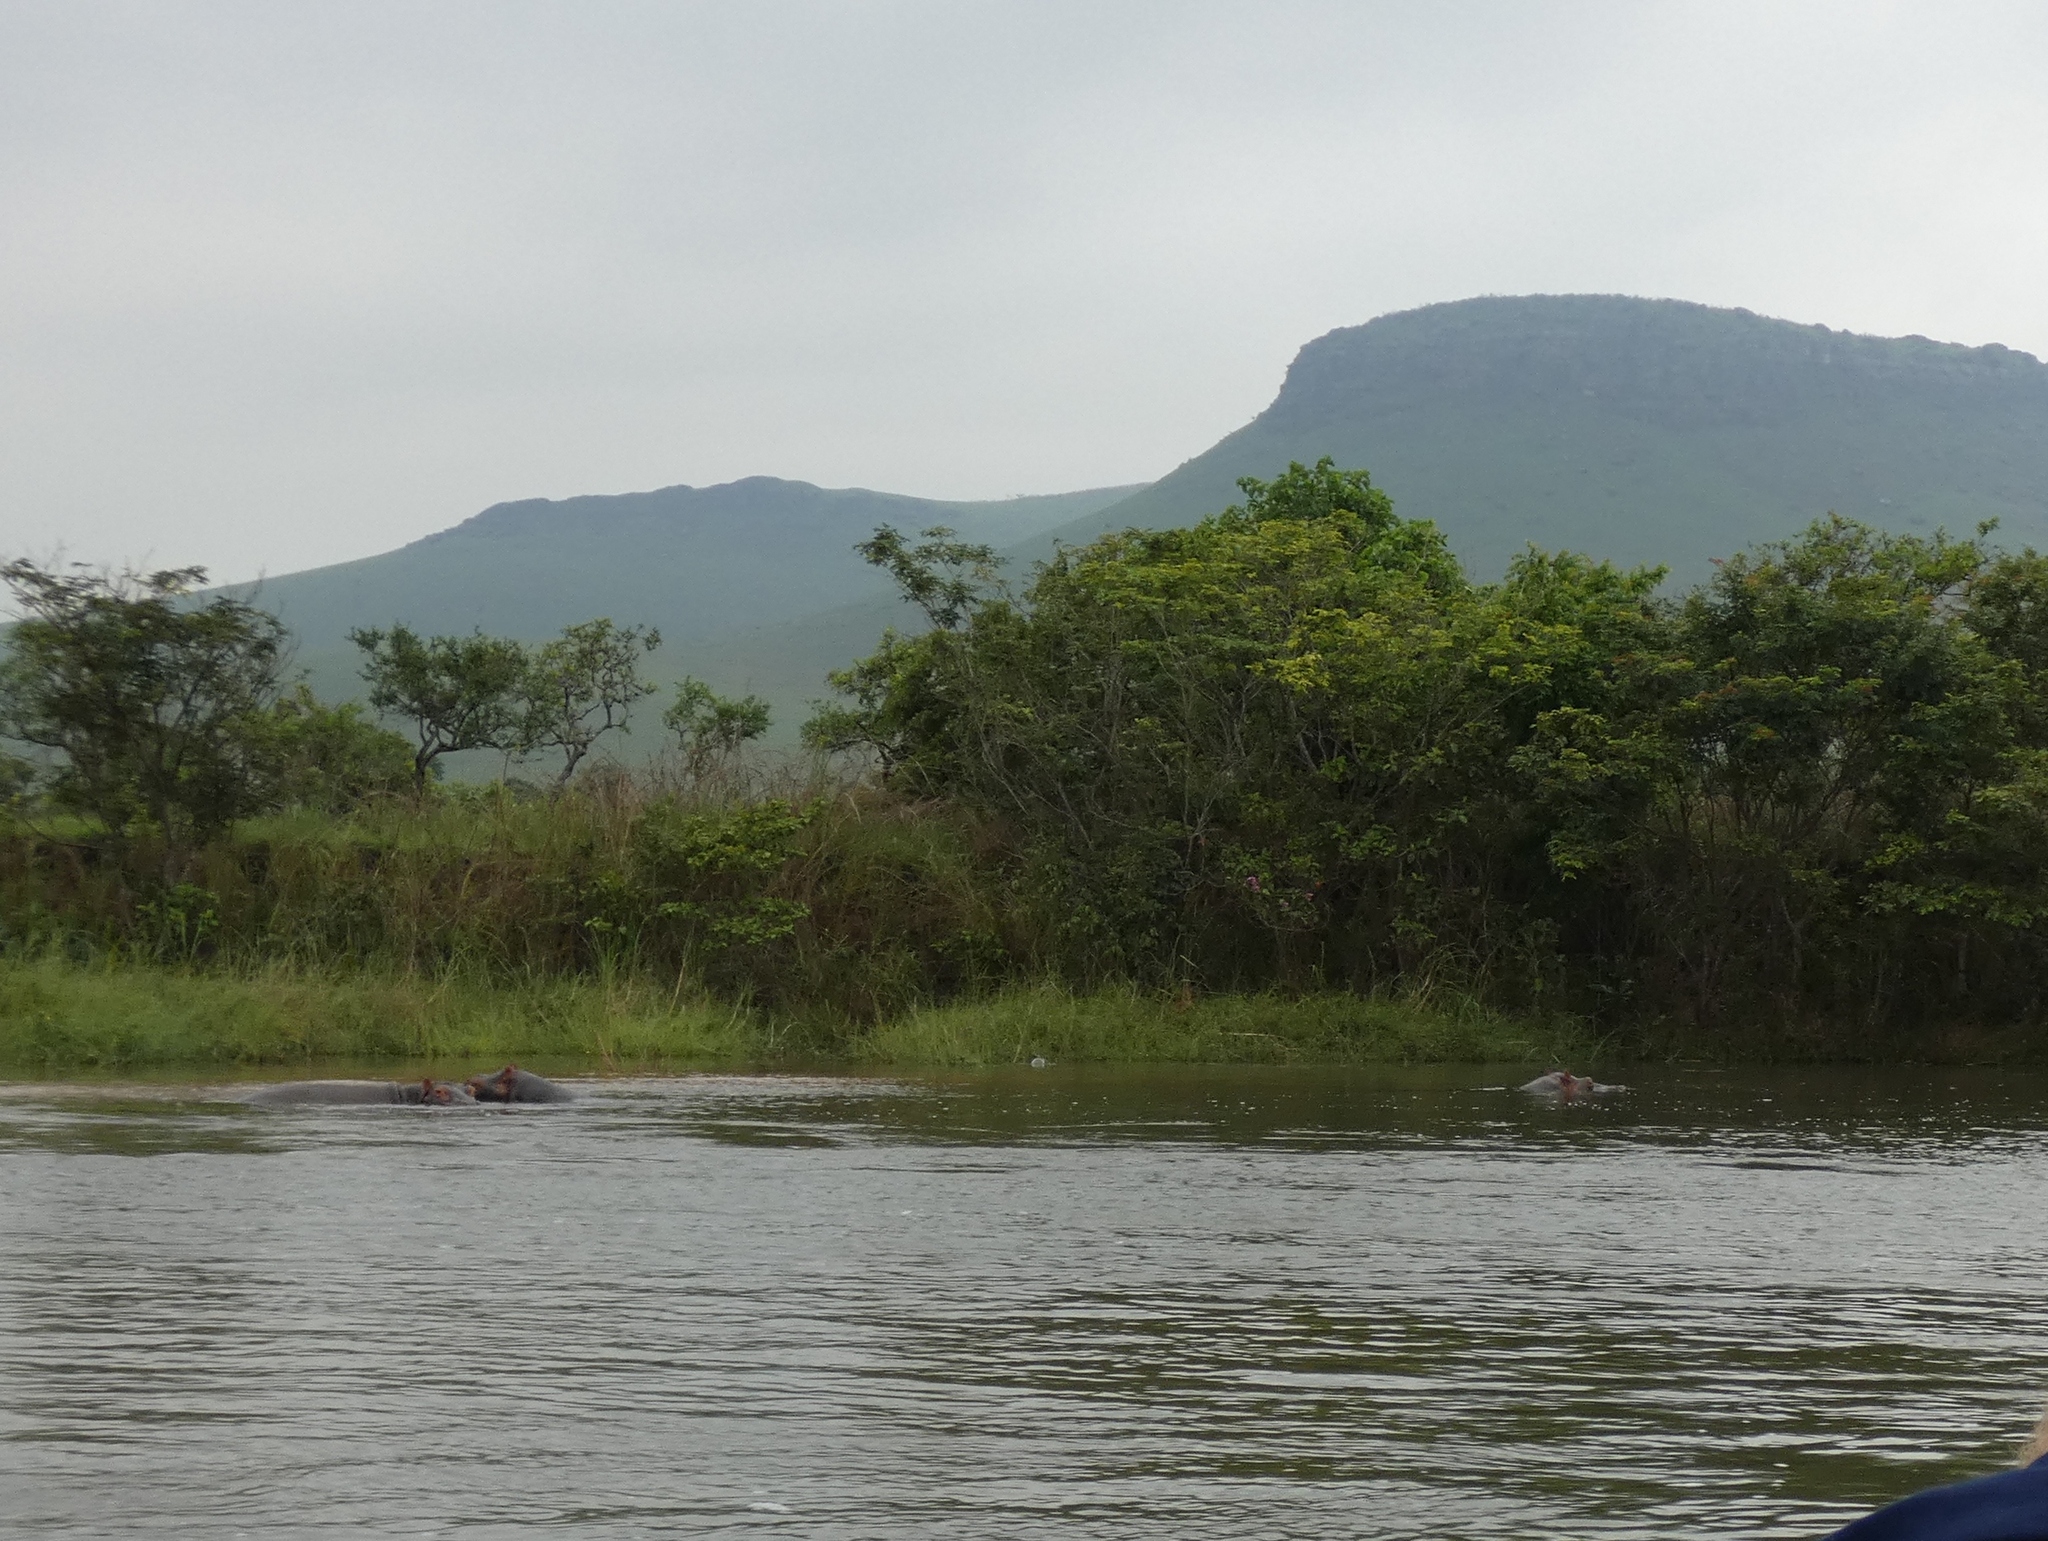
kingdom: Animalia
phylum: Chordata
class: Mammalia
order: Artiodactyla
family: Hippopotamidae
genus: Hippopotamus
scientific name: Hippopotamus amphibius
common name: Common hippopotamus
